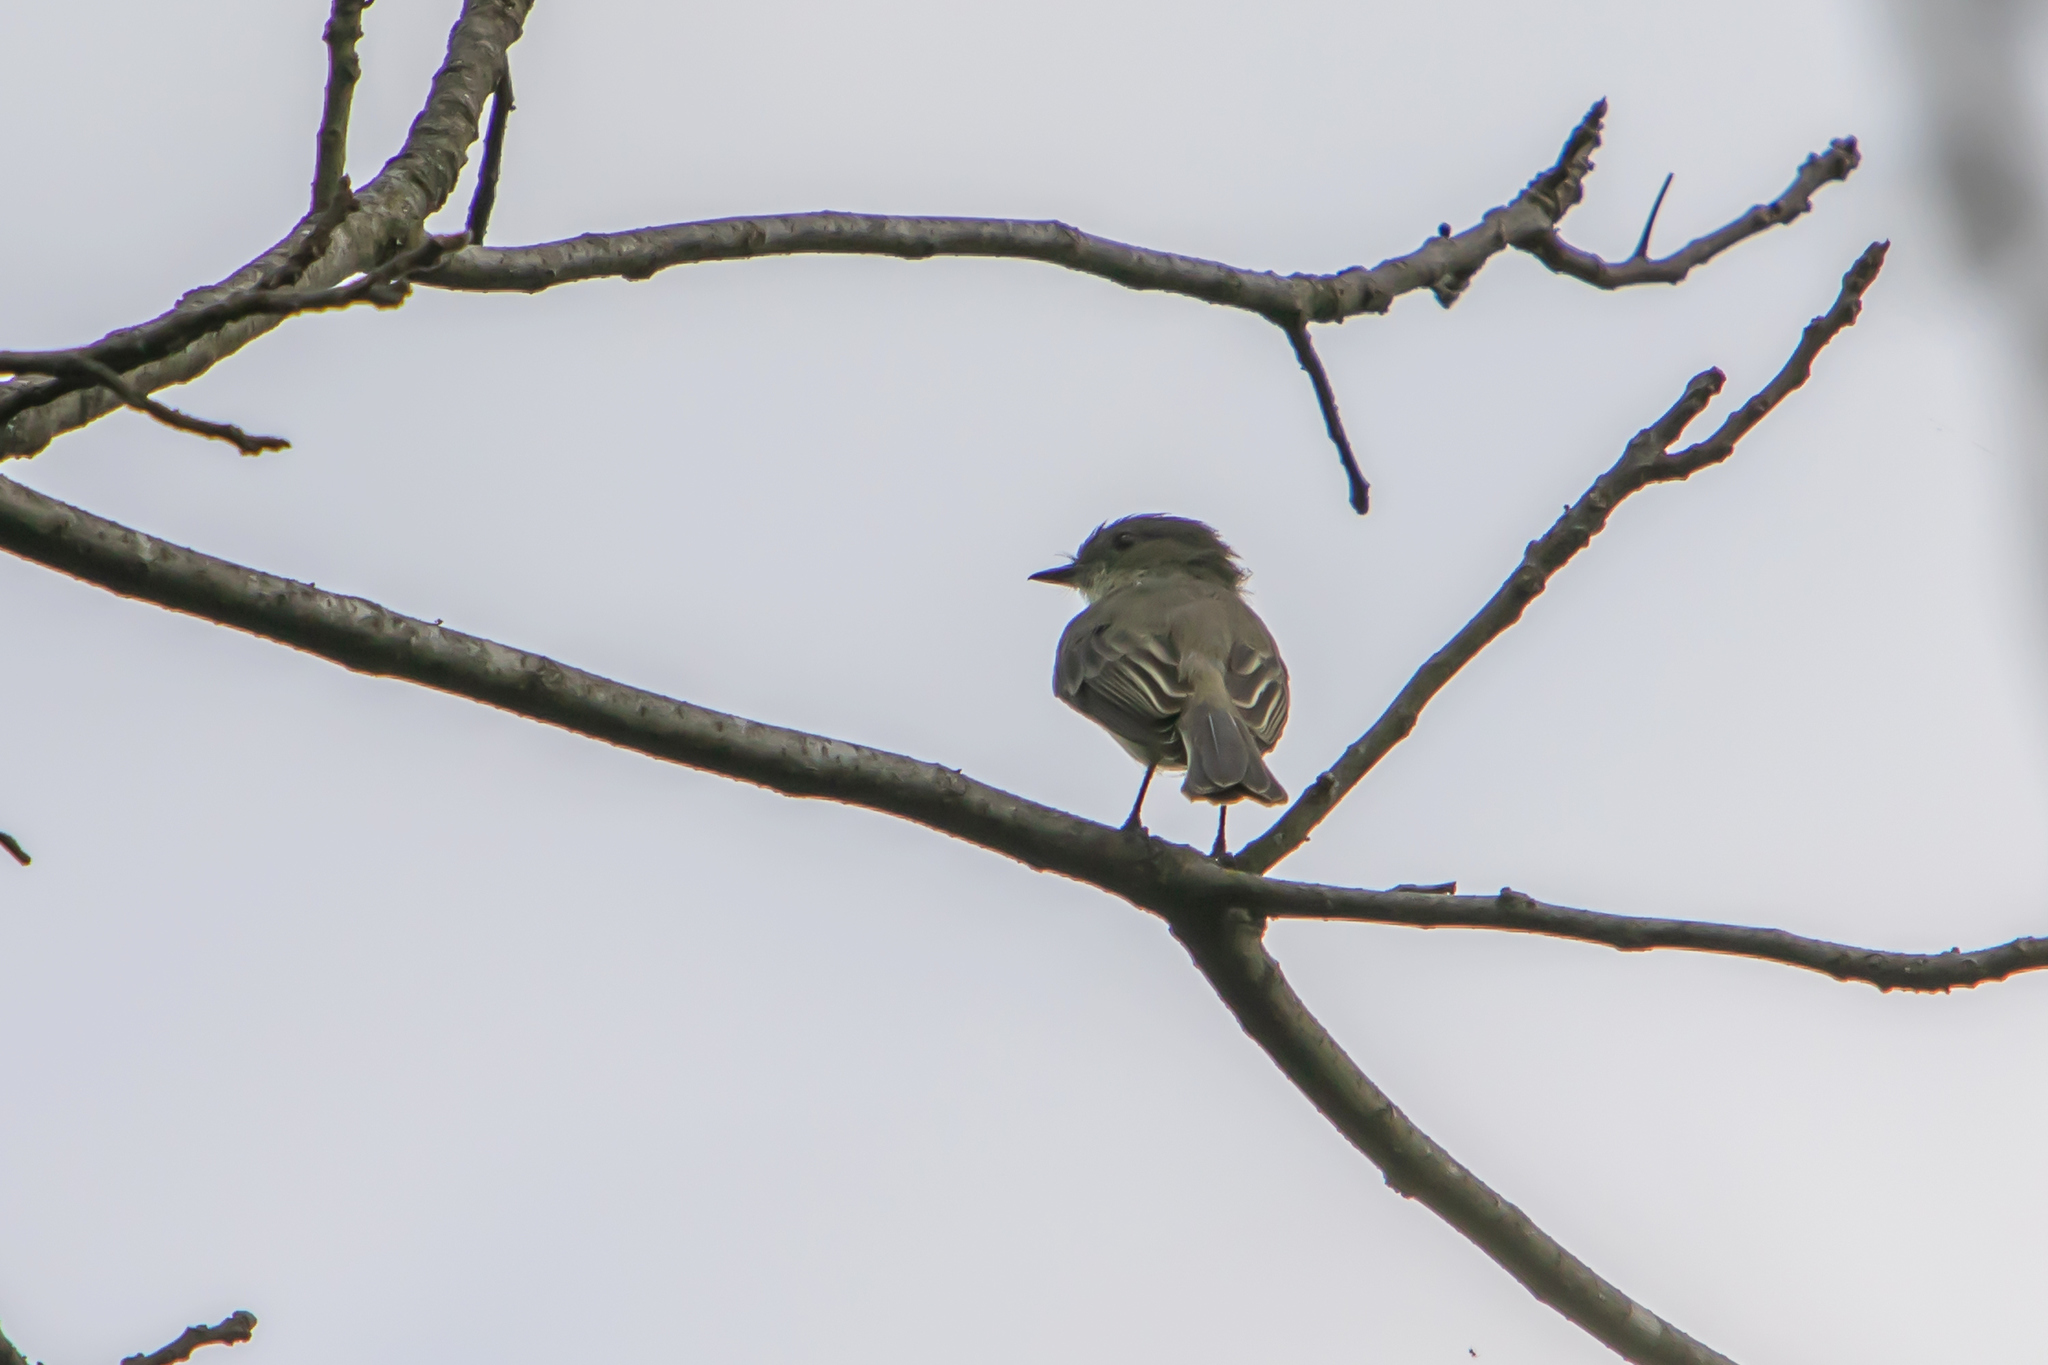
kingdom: Animalia
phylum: Chordata
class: Aves
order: Passeriformes
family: Tyrannidae
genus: Sayornis
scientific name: Sayornis phoebe
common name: Eastern phoebe
